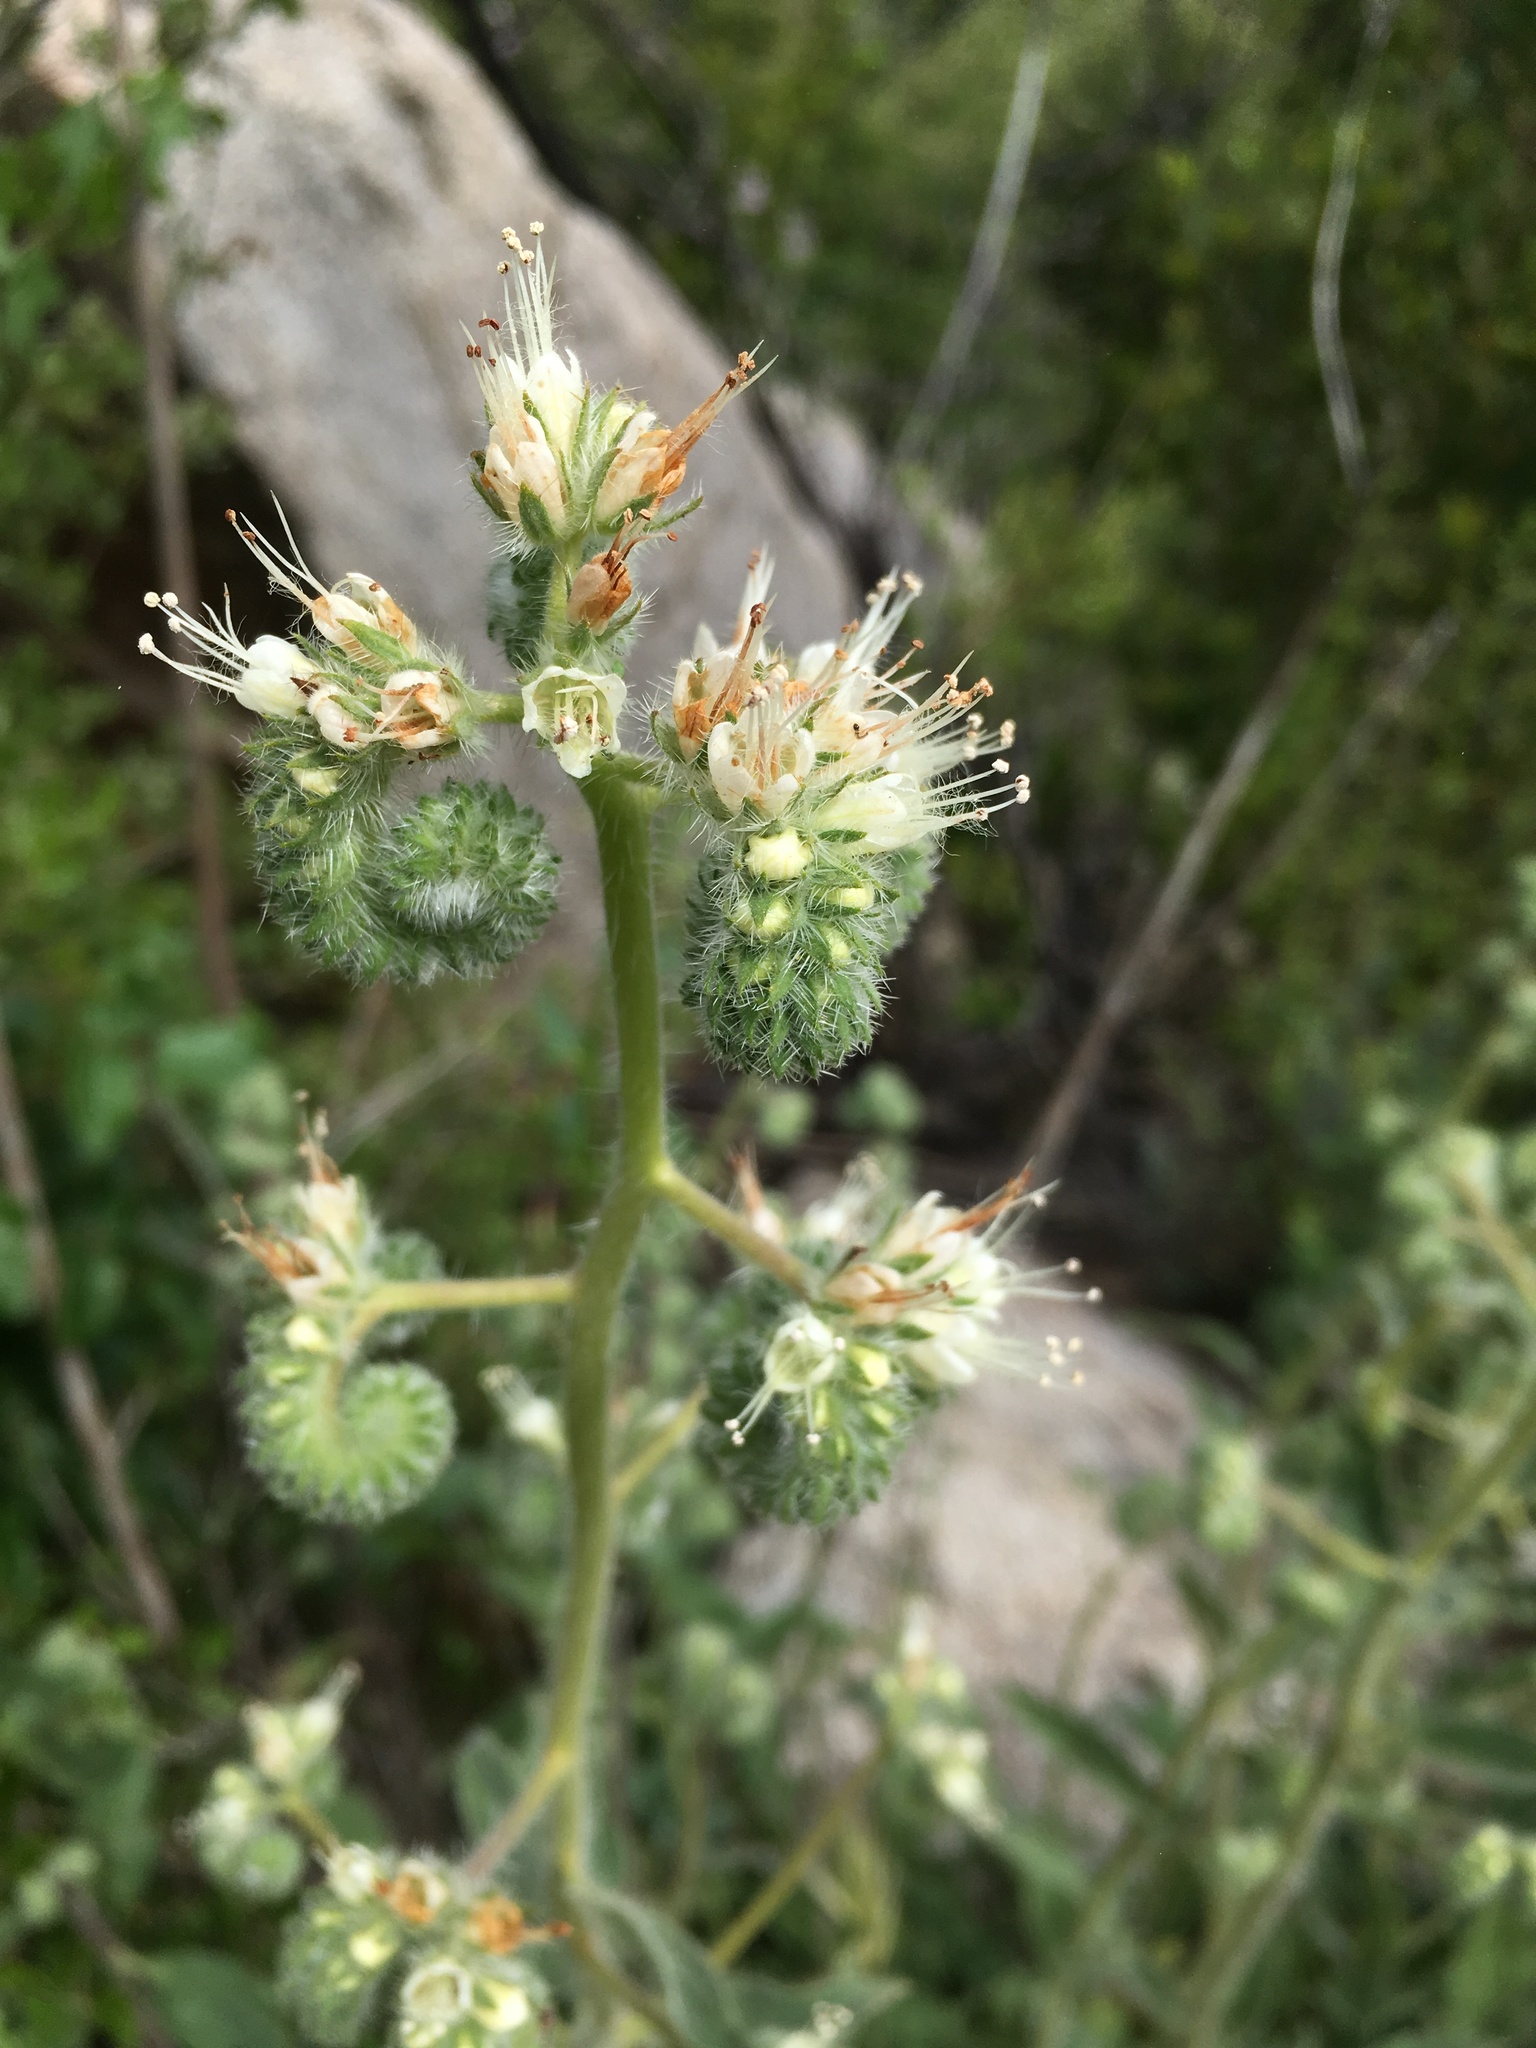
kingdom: Plantae
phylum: Tracheophyta
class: Magnoliopsida
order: Boraginales
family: Hydrophyllaceae
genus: Phacelia
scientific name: Phacelia imbricata
